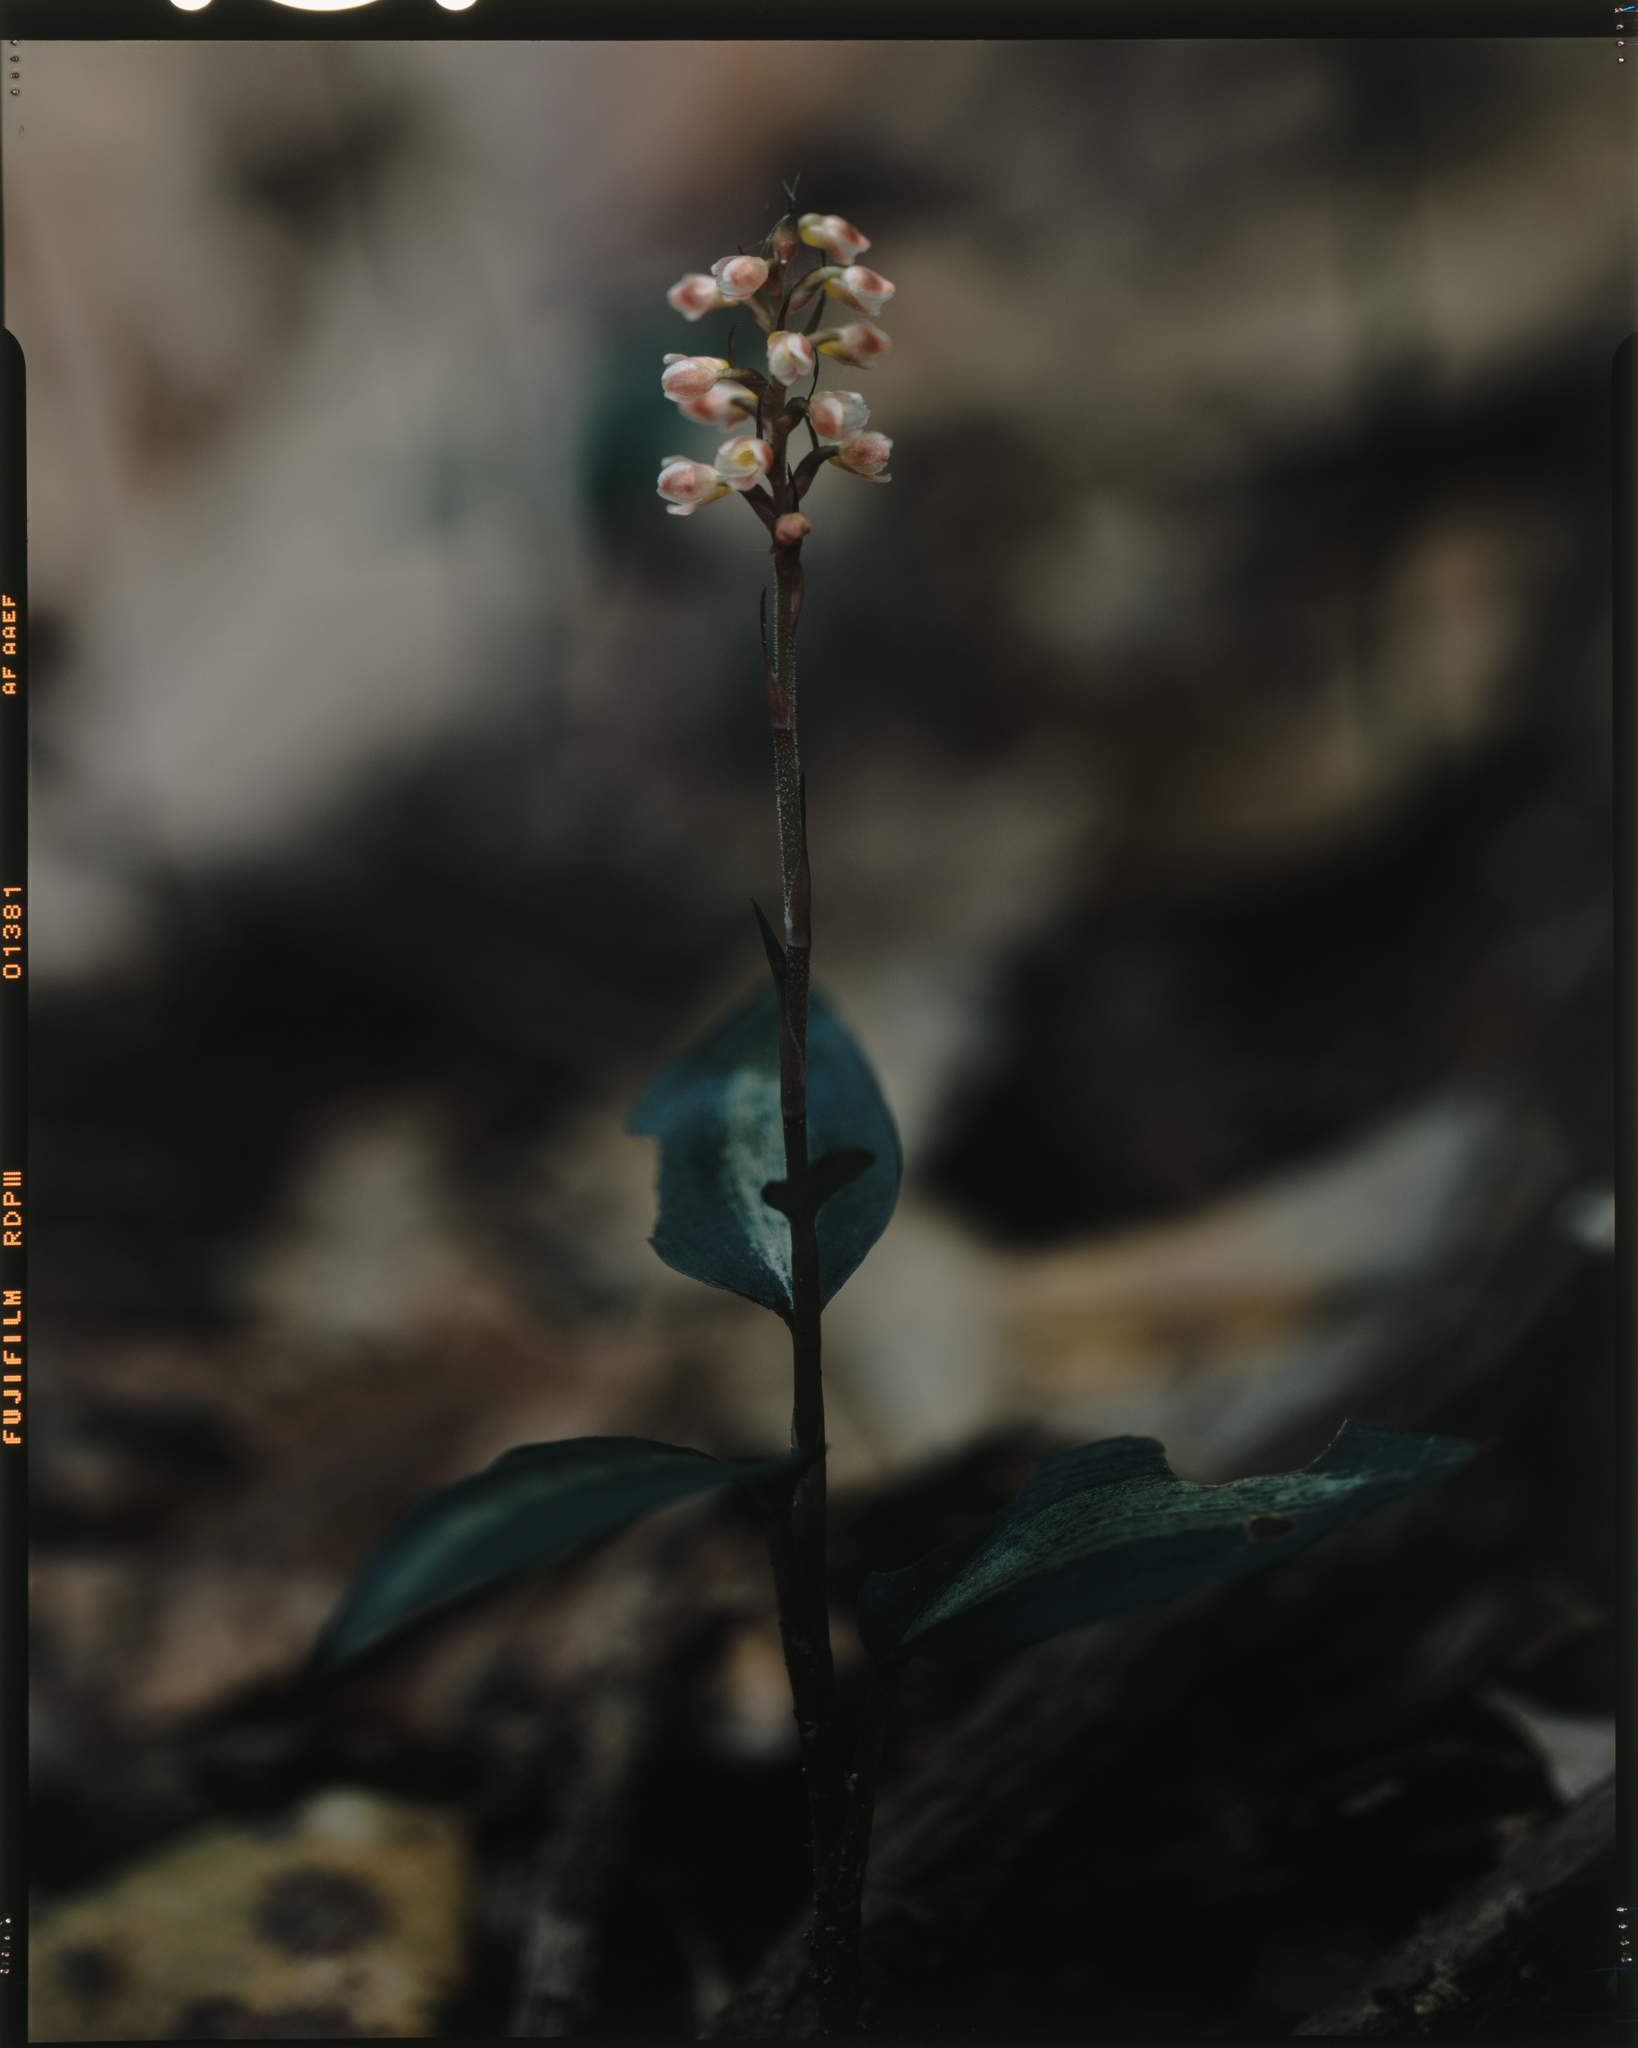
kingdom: Plantae
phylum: Tracheophyta
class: Liliopsida
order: Asparagales
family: Orchidaceae
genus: Goodyera
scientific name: Goodyera hachijoensis
